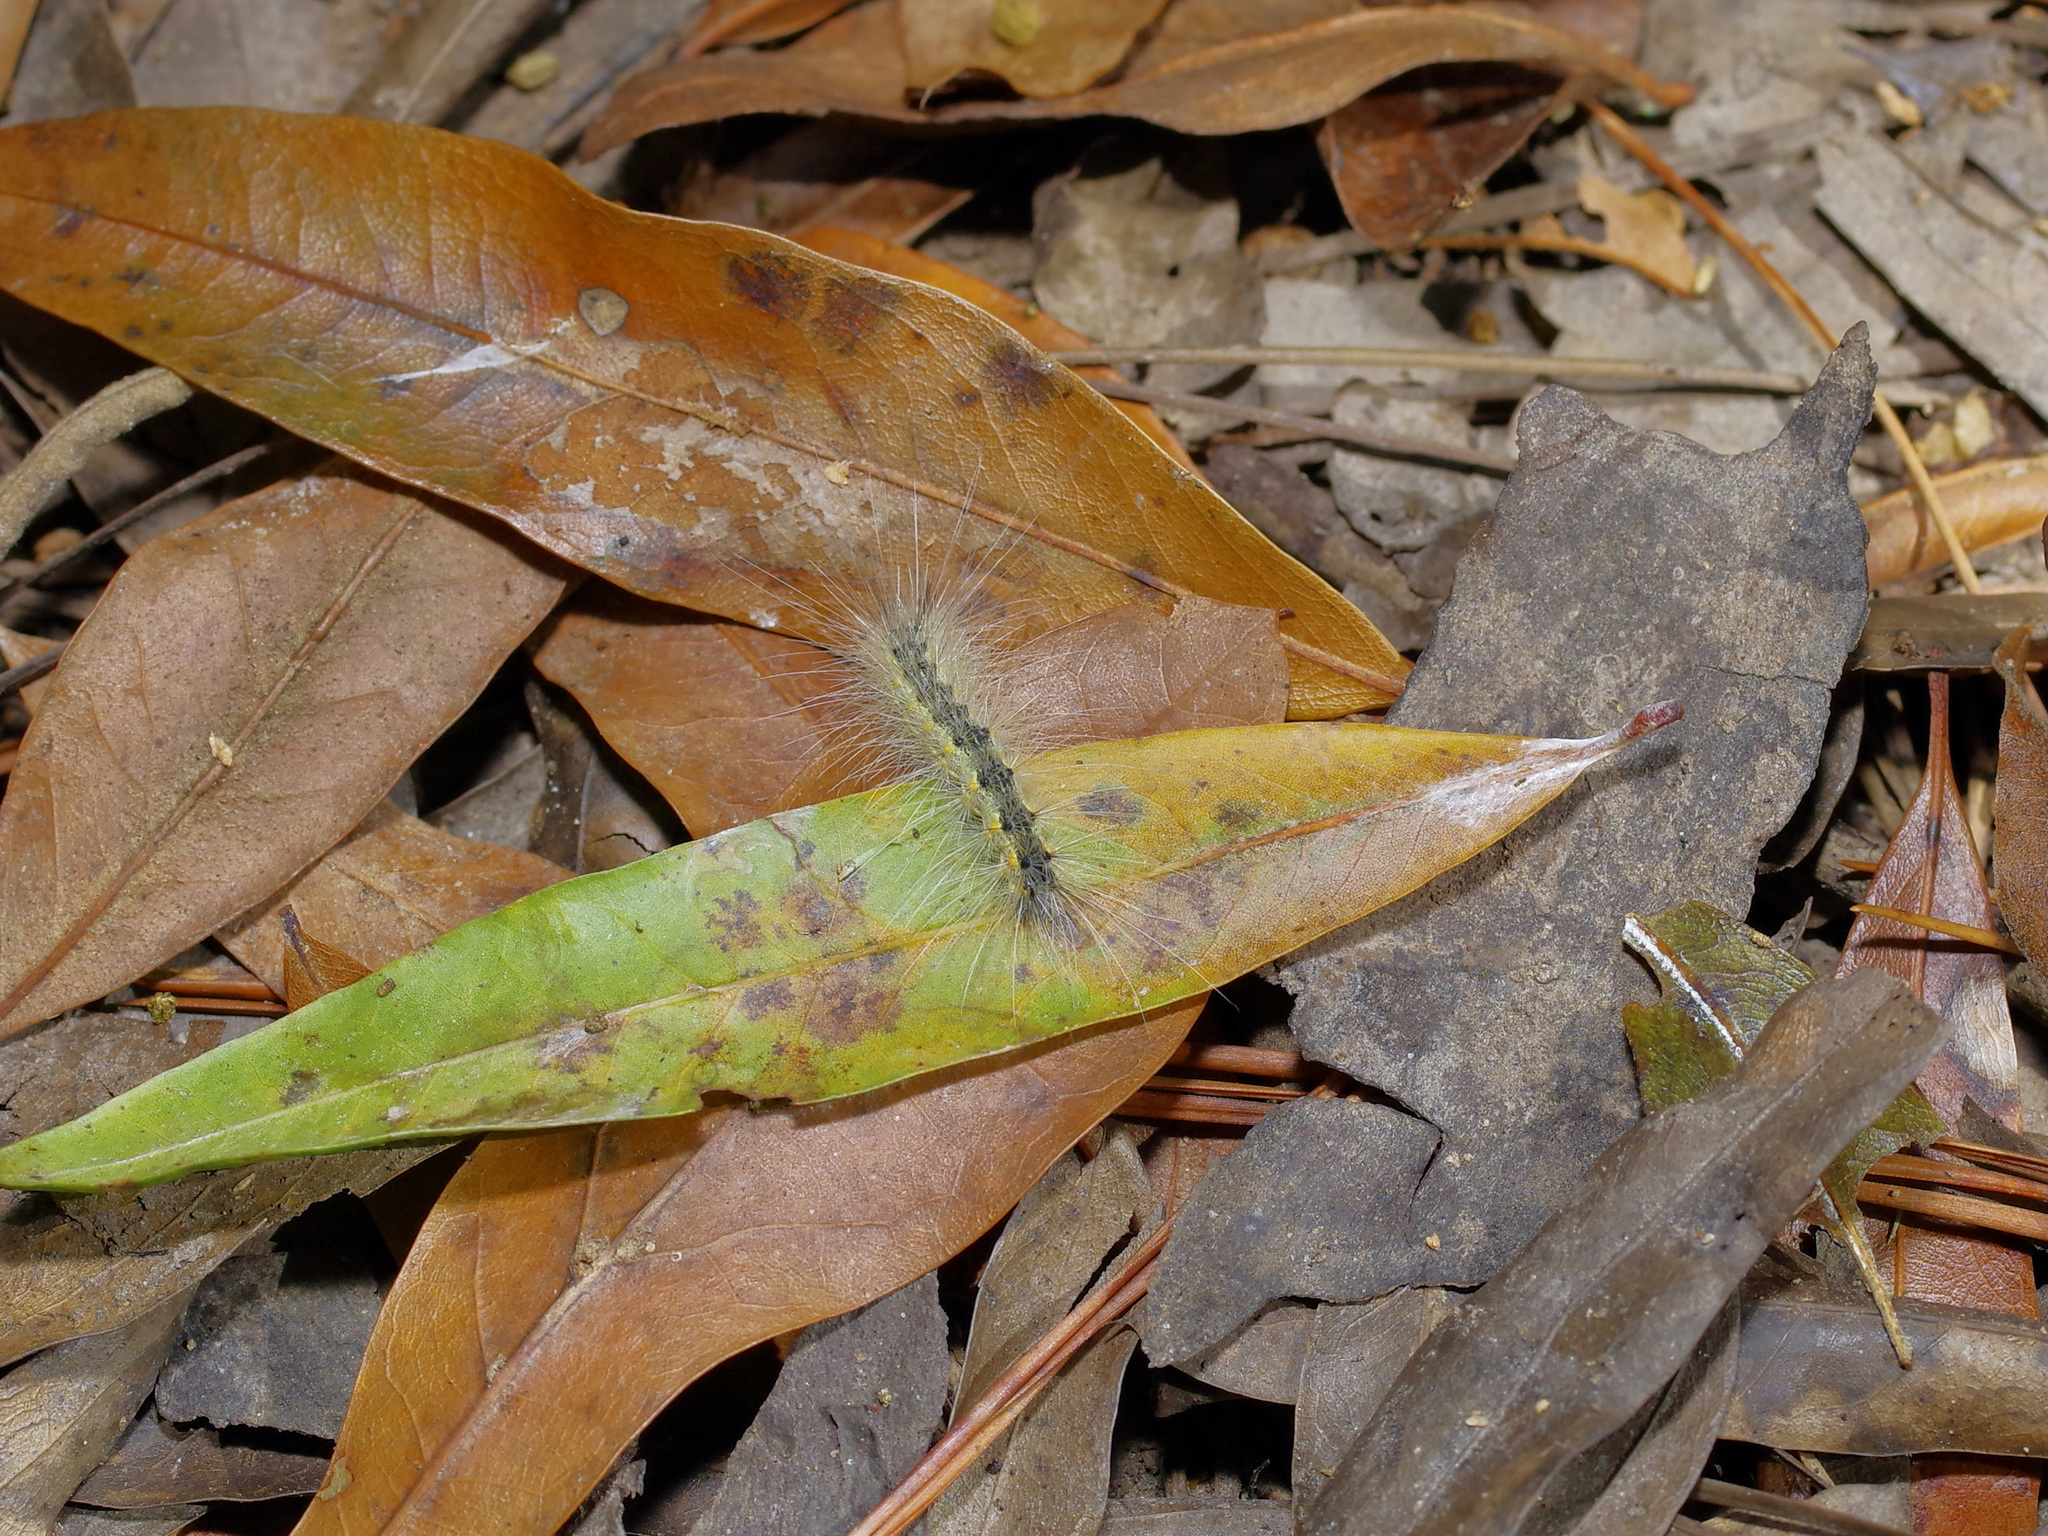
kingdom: Animalia
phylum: Arthropoda
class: Insecta
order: Lepidoptera
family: Erebidae
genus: Hyphantria
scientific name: Hyphantria cunea
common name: American white moth
